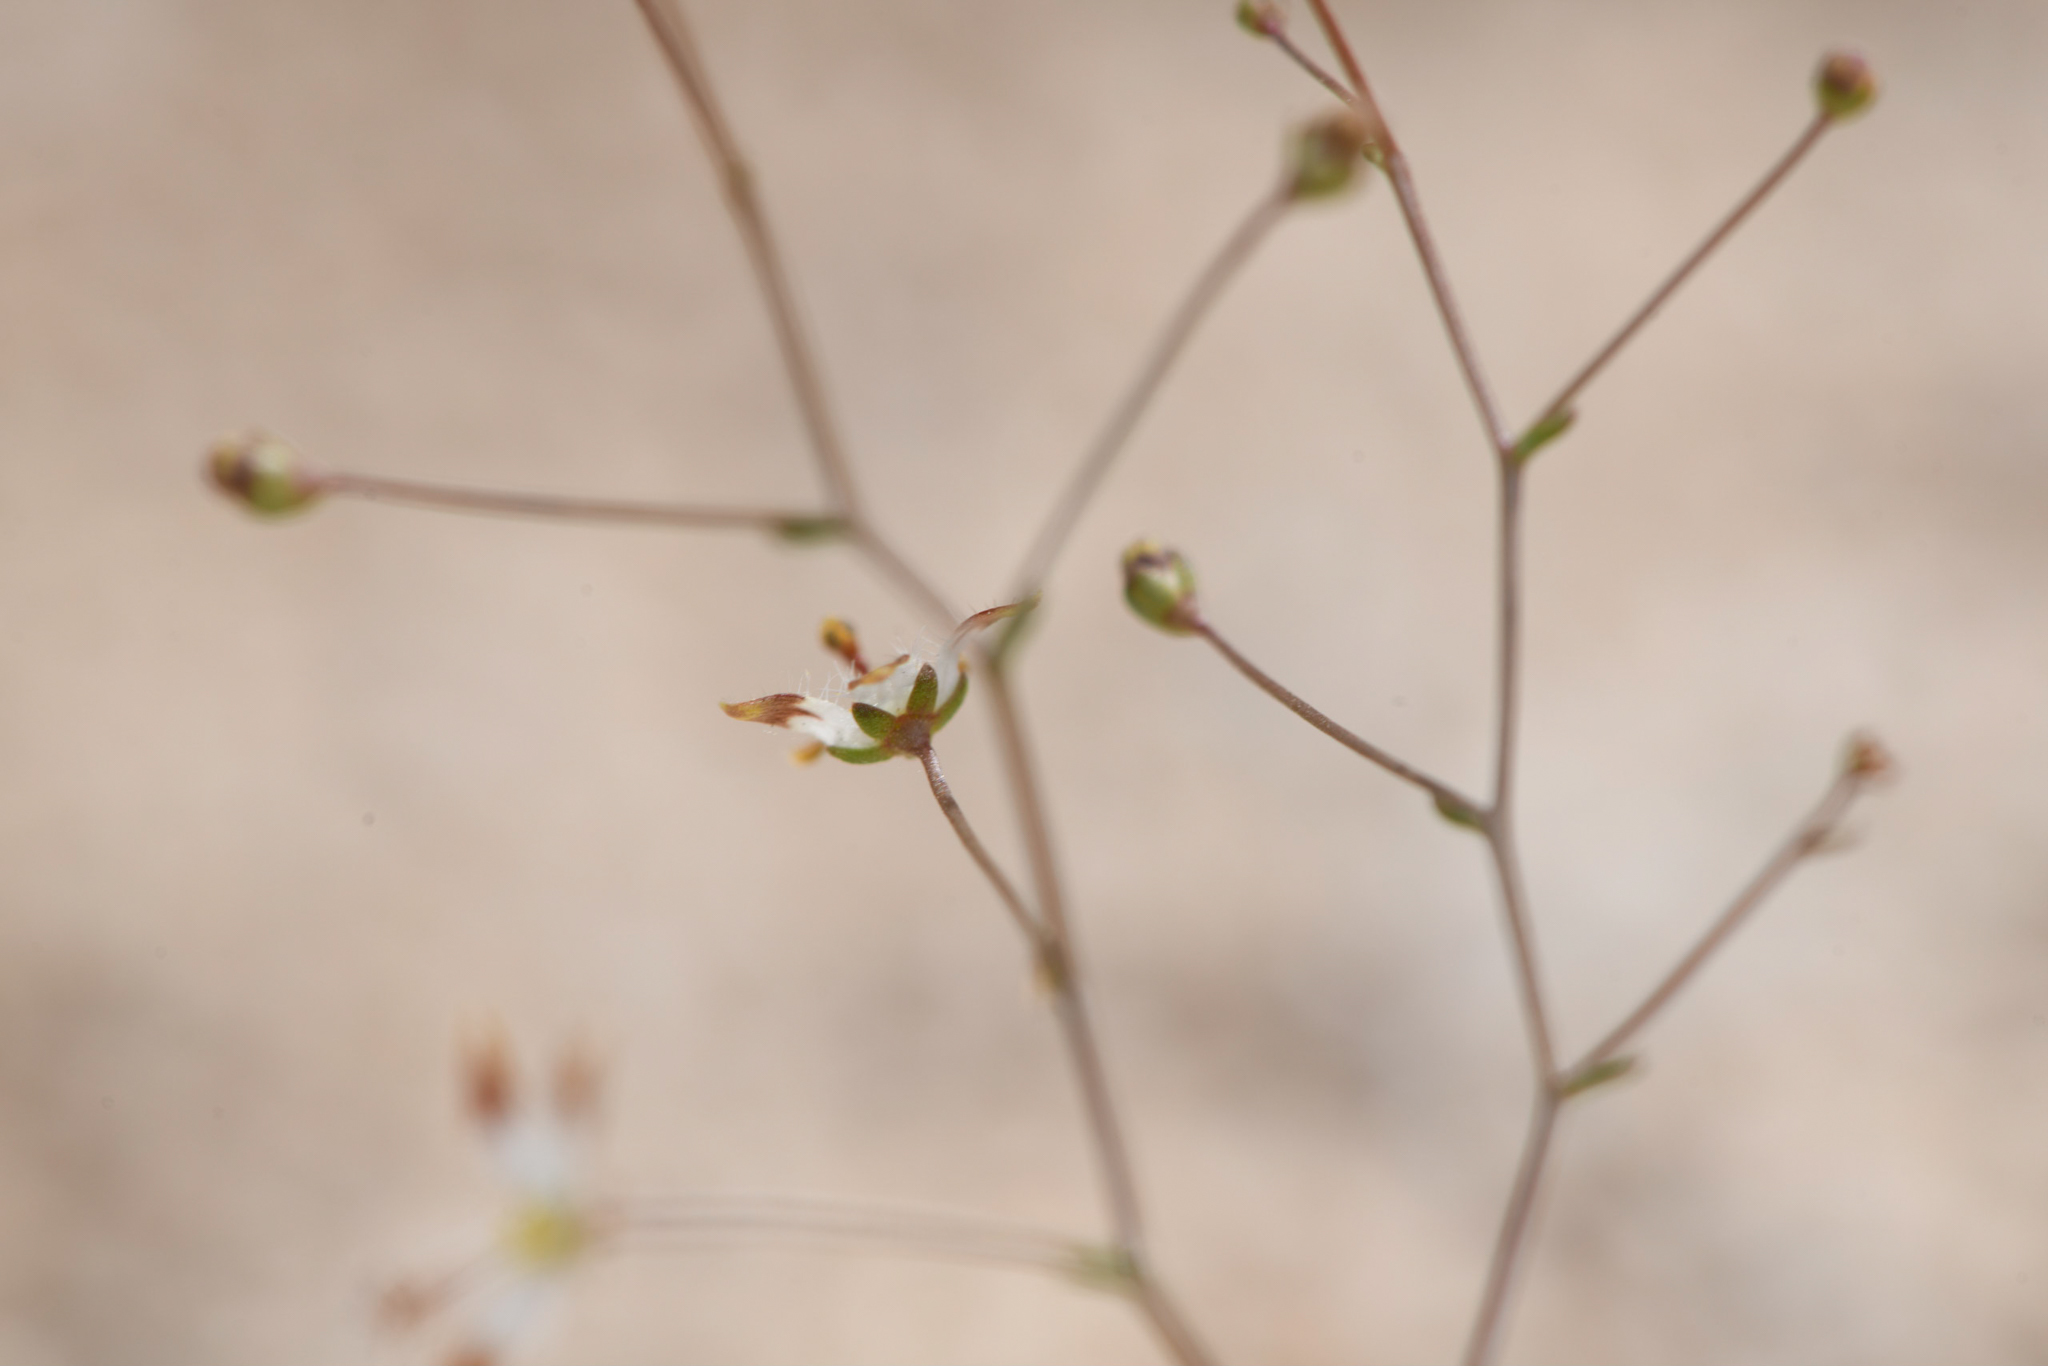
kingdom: Plantae
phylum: Tracheophyta
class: Magnoliopsida
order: Asterales
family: Campanulaceae
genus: Nemacladus
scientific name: Nemacladus rubescens
